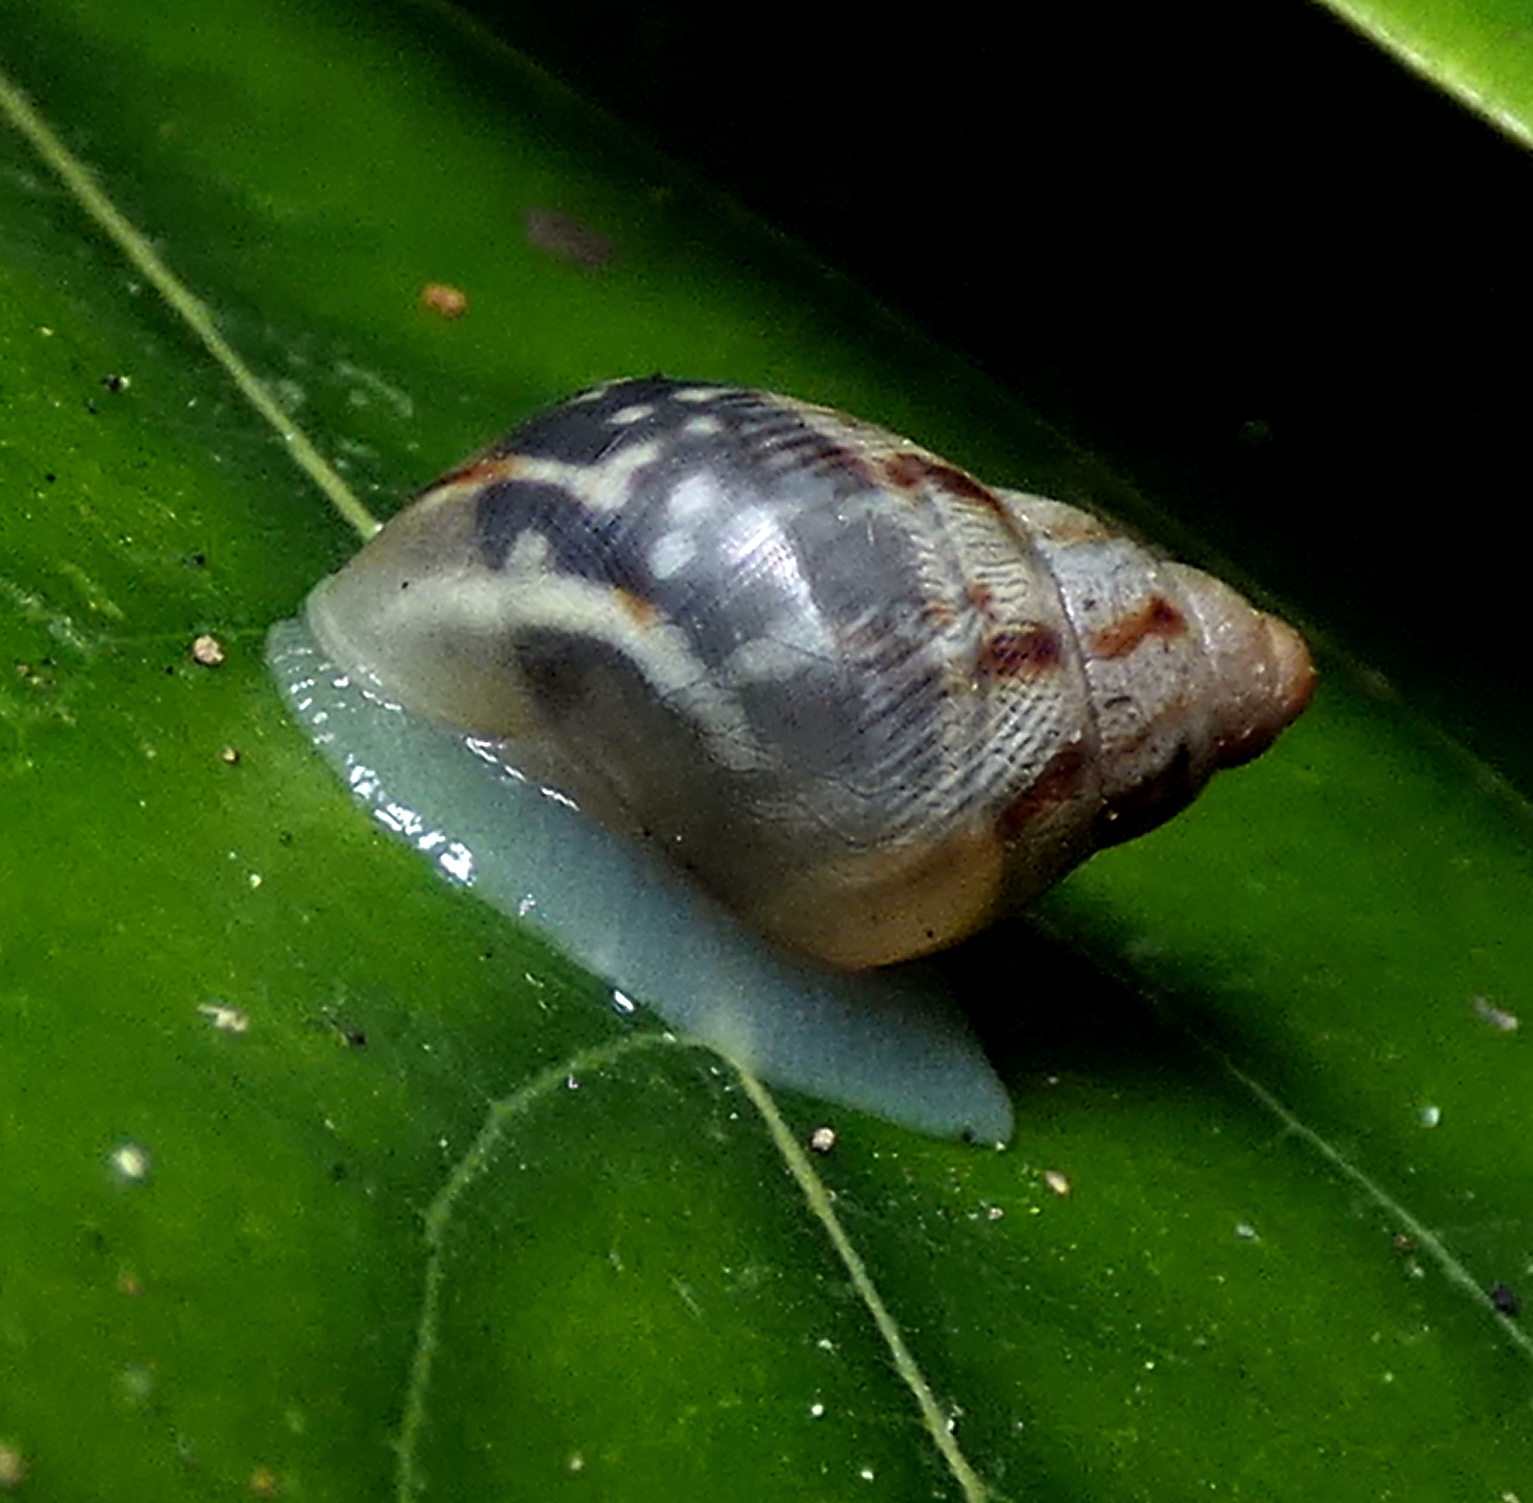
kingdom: Animalia
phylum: Mollusca
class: Gastropoda
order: Stylommatophora
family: Bulimulidae
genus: Drymaeus
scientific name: Drymaeus papyraceus
